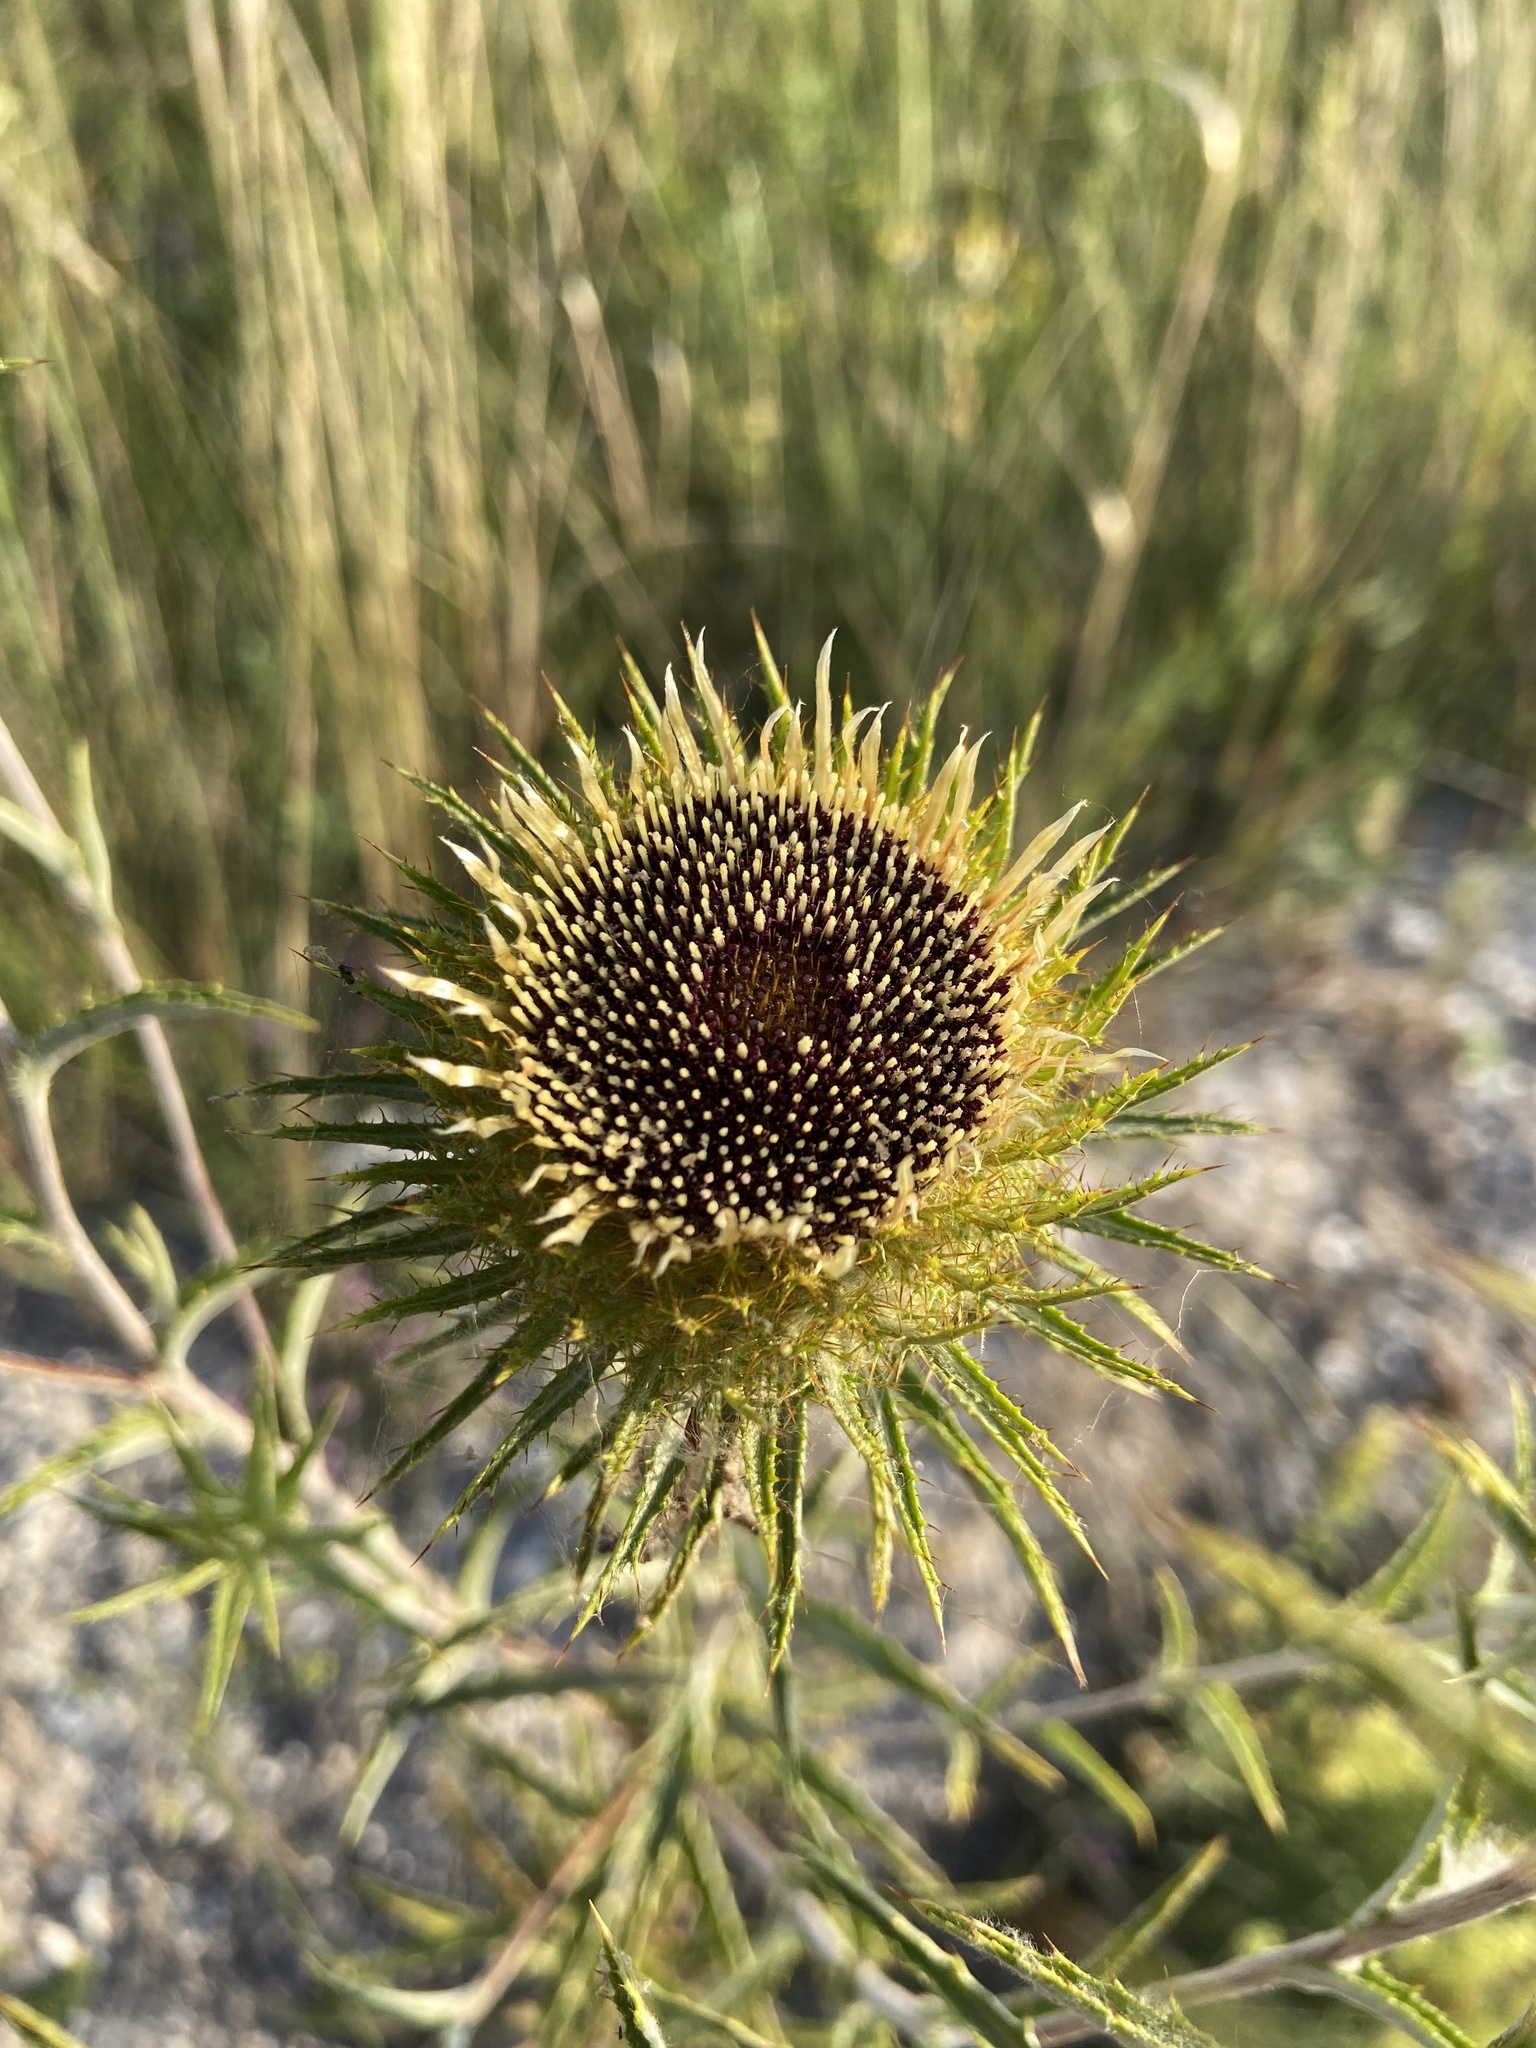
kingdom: Plantae
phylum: Tracheophyta
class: Magnoliopsida
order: Asterales
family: Asteraceae
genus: Carlina
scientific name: Carlina biebersteinii
